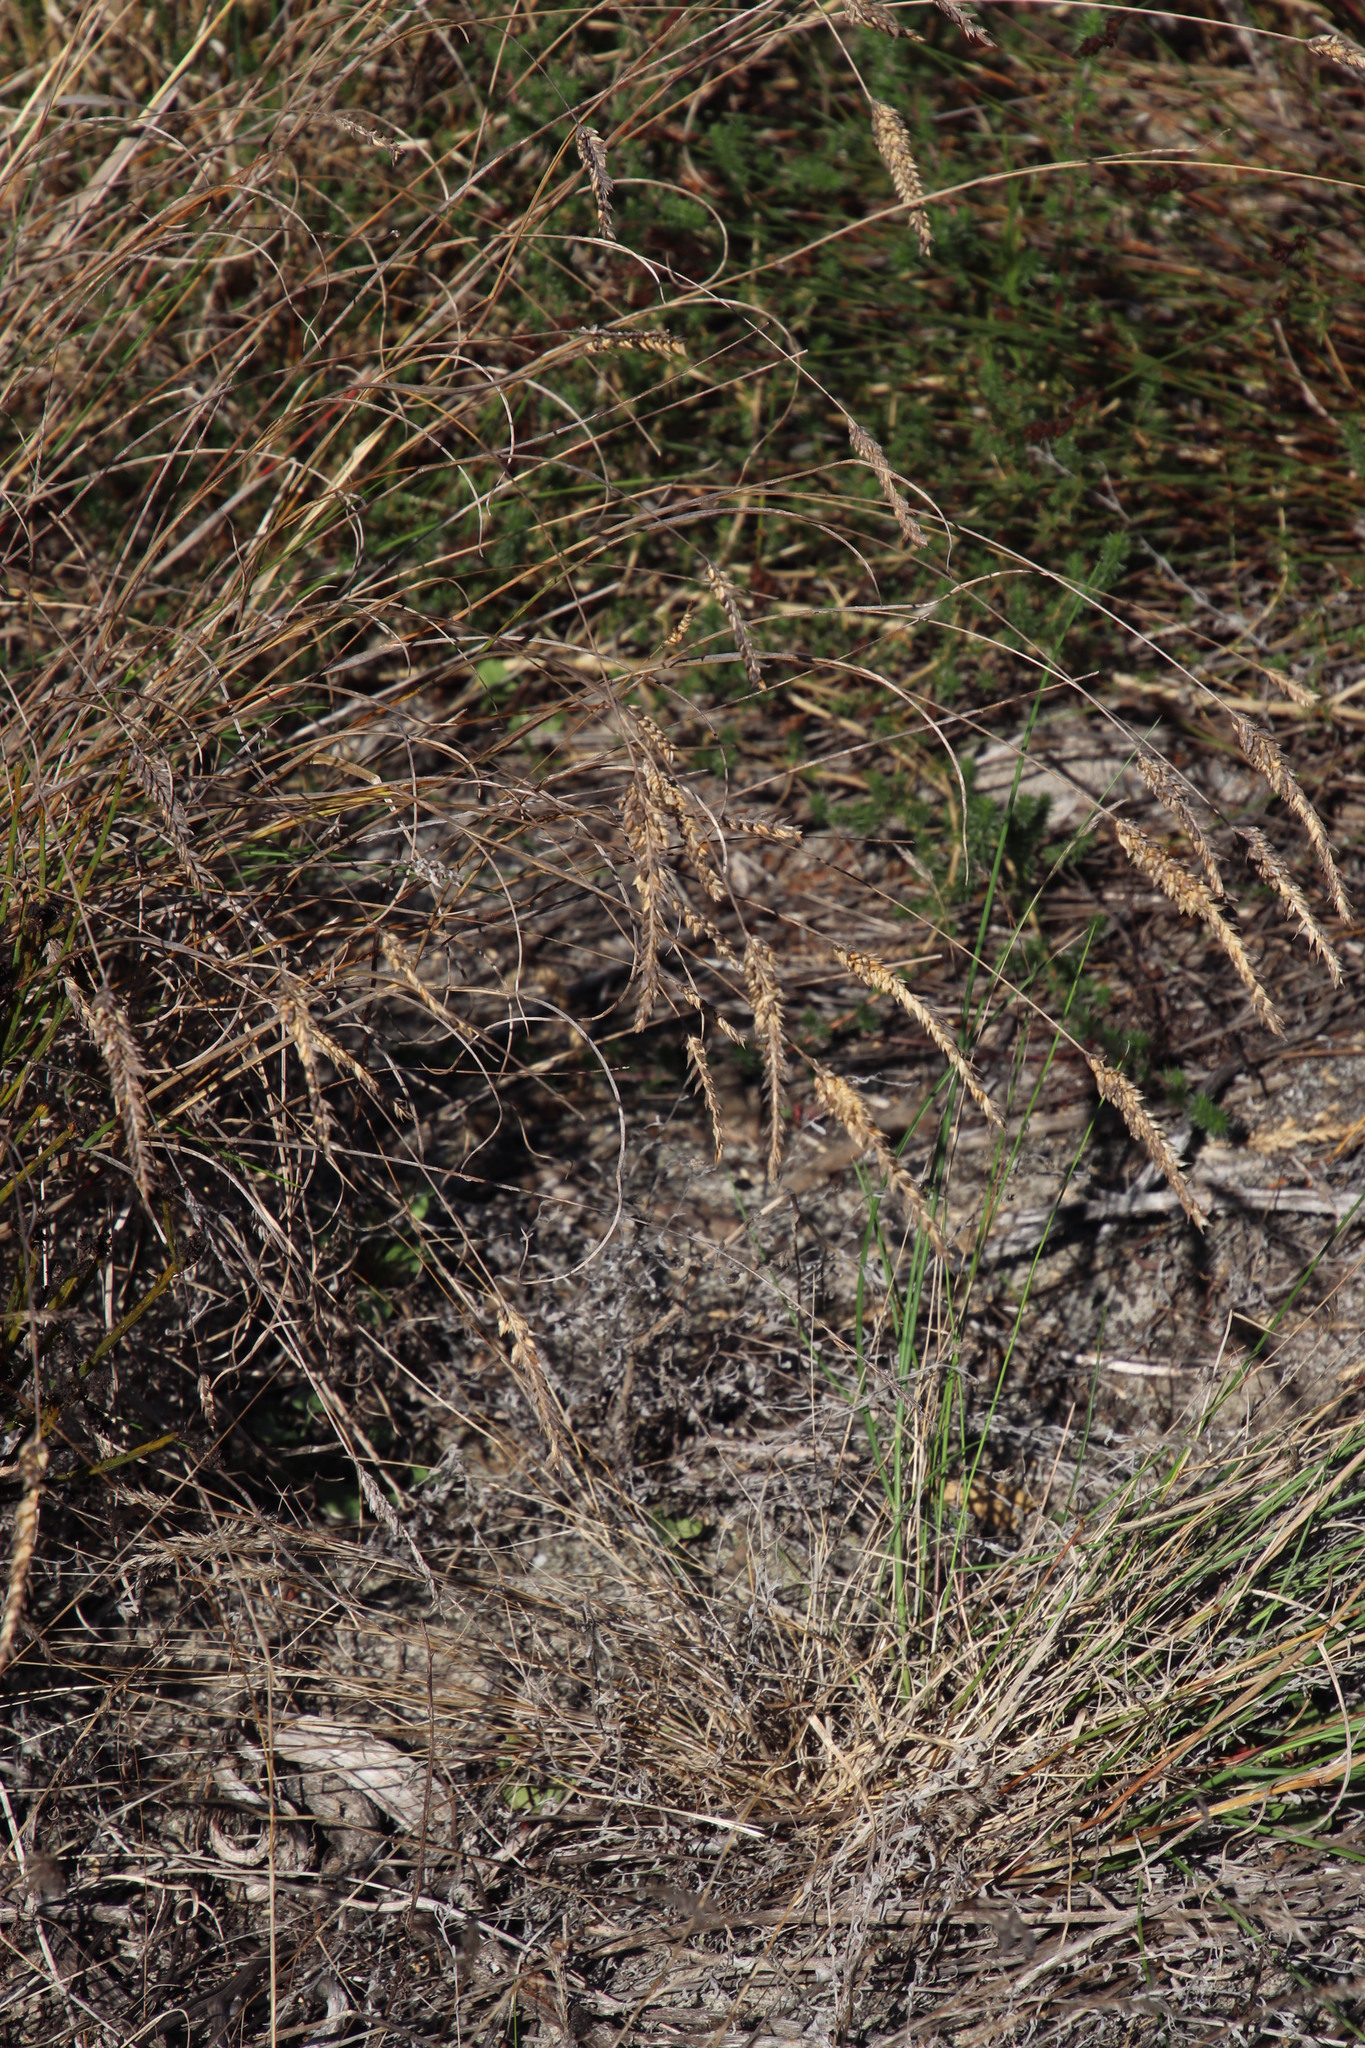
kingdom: Plantae
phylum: Tracheophyta
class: Liliopsida
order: Poales
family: Poaceae
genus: Tribolium
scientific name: Tribolium uniolae
